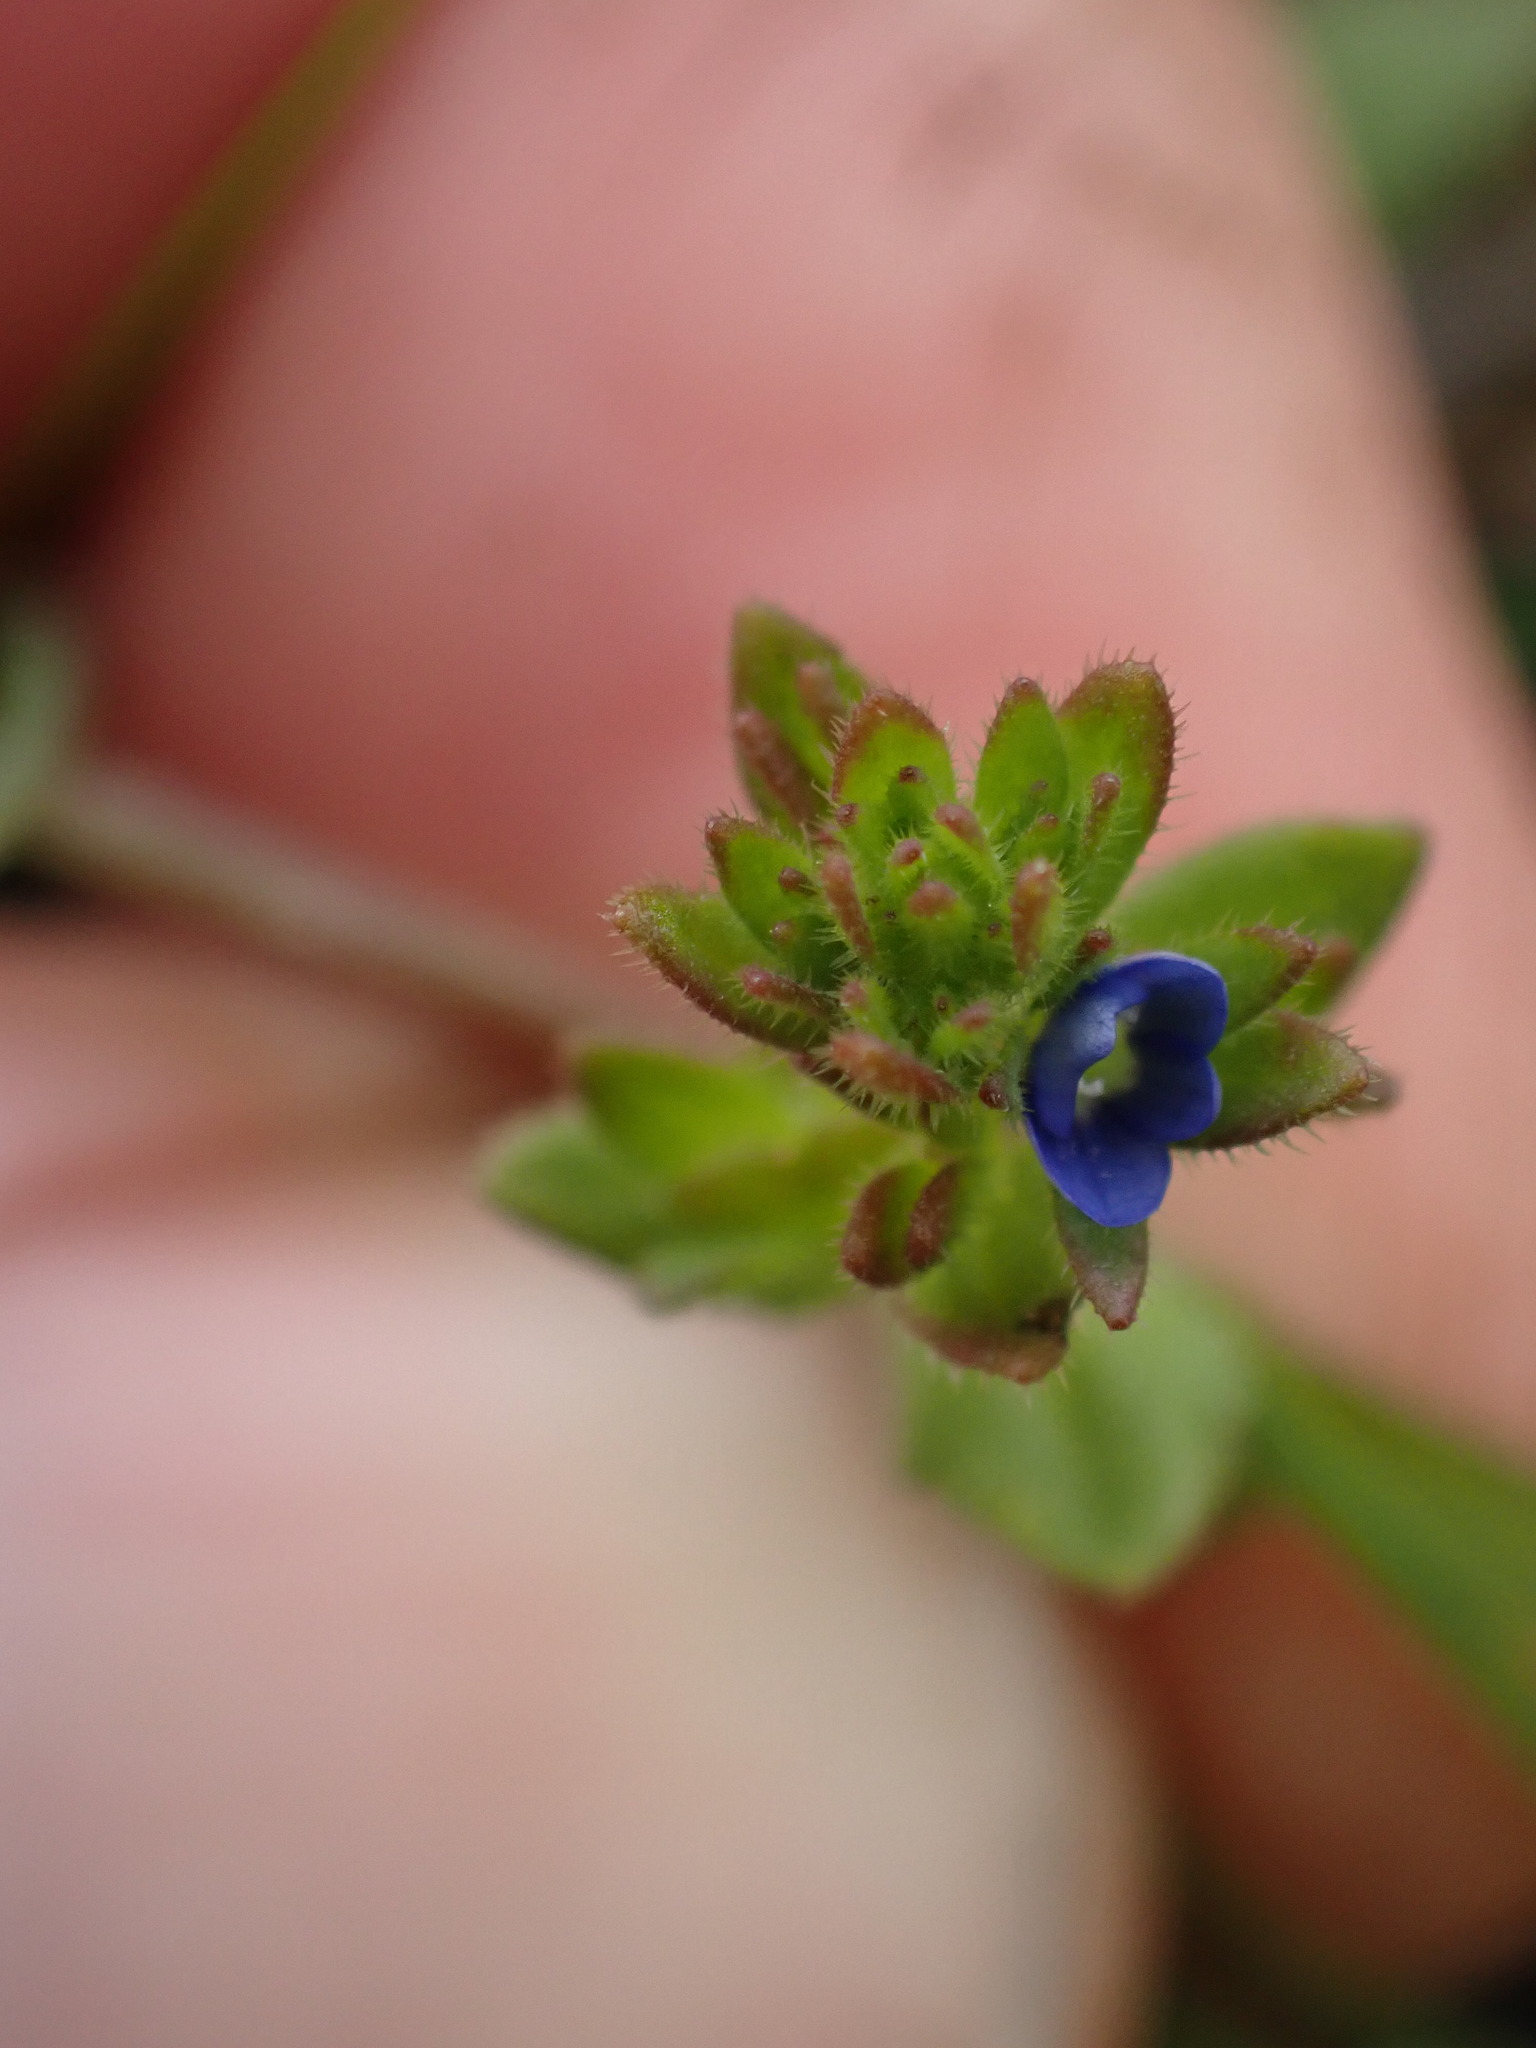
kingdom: Plantae
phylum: Tracheophyta
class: Magnoliopsida
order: Lamiales
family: Plantaginaceae
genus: Veronica
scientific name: Veronica arvensis
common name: Corn speedwell
